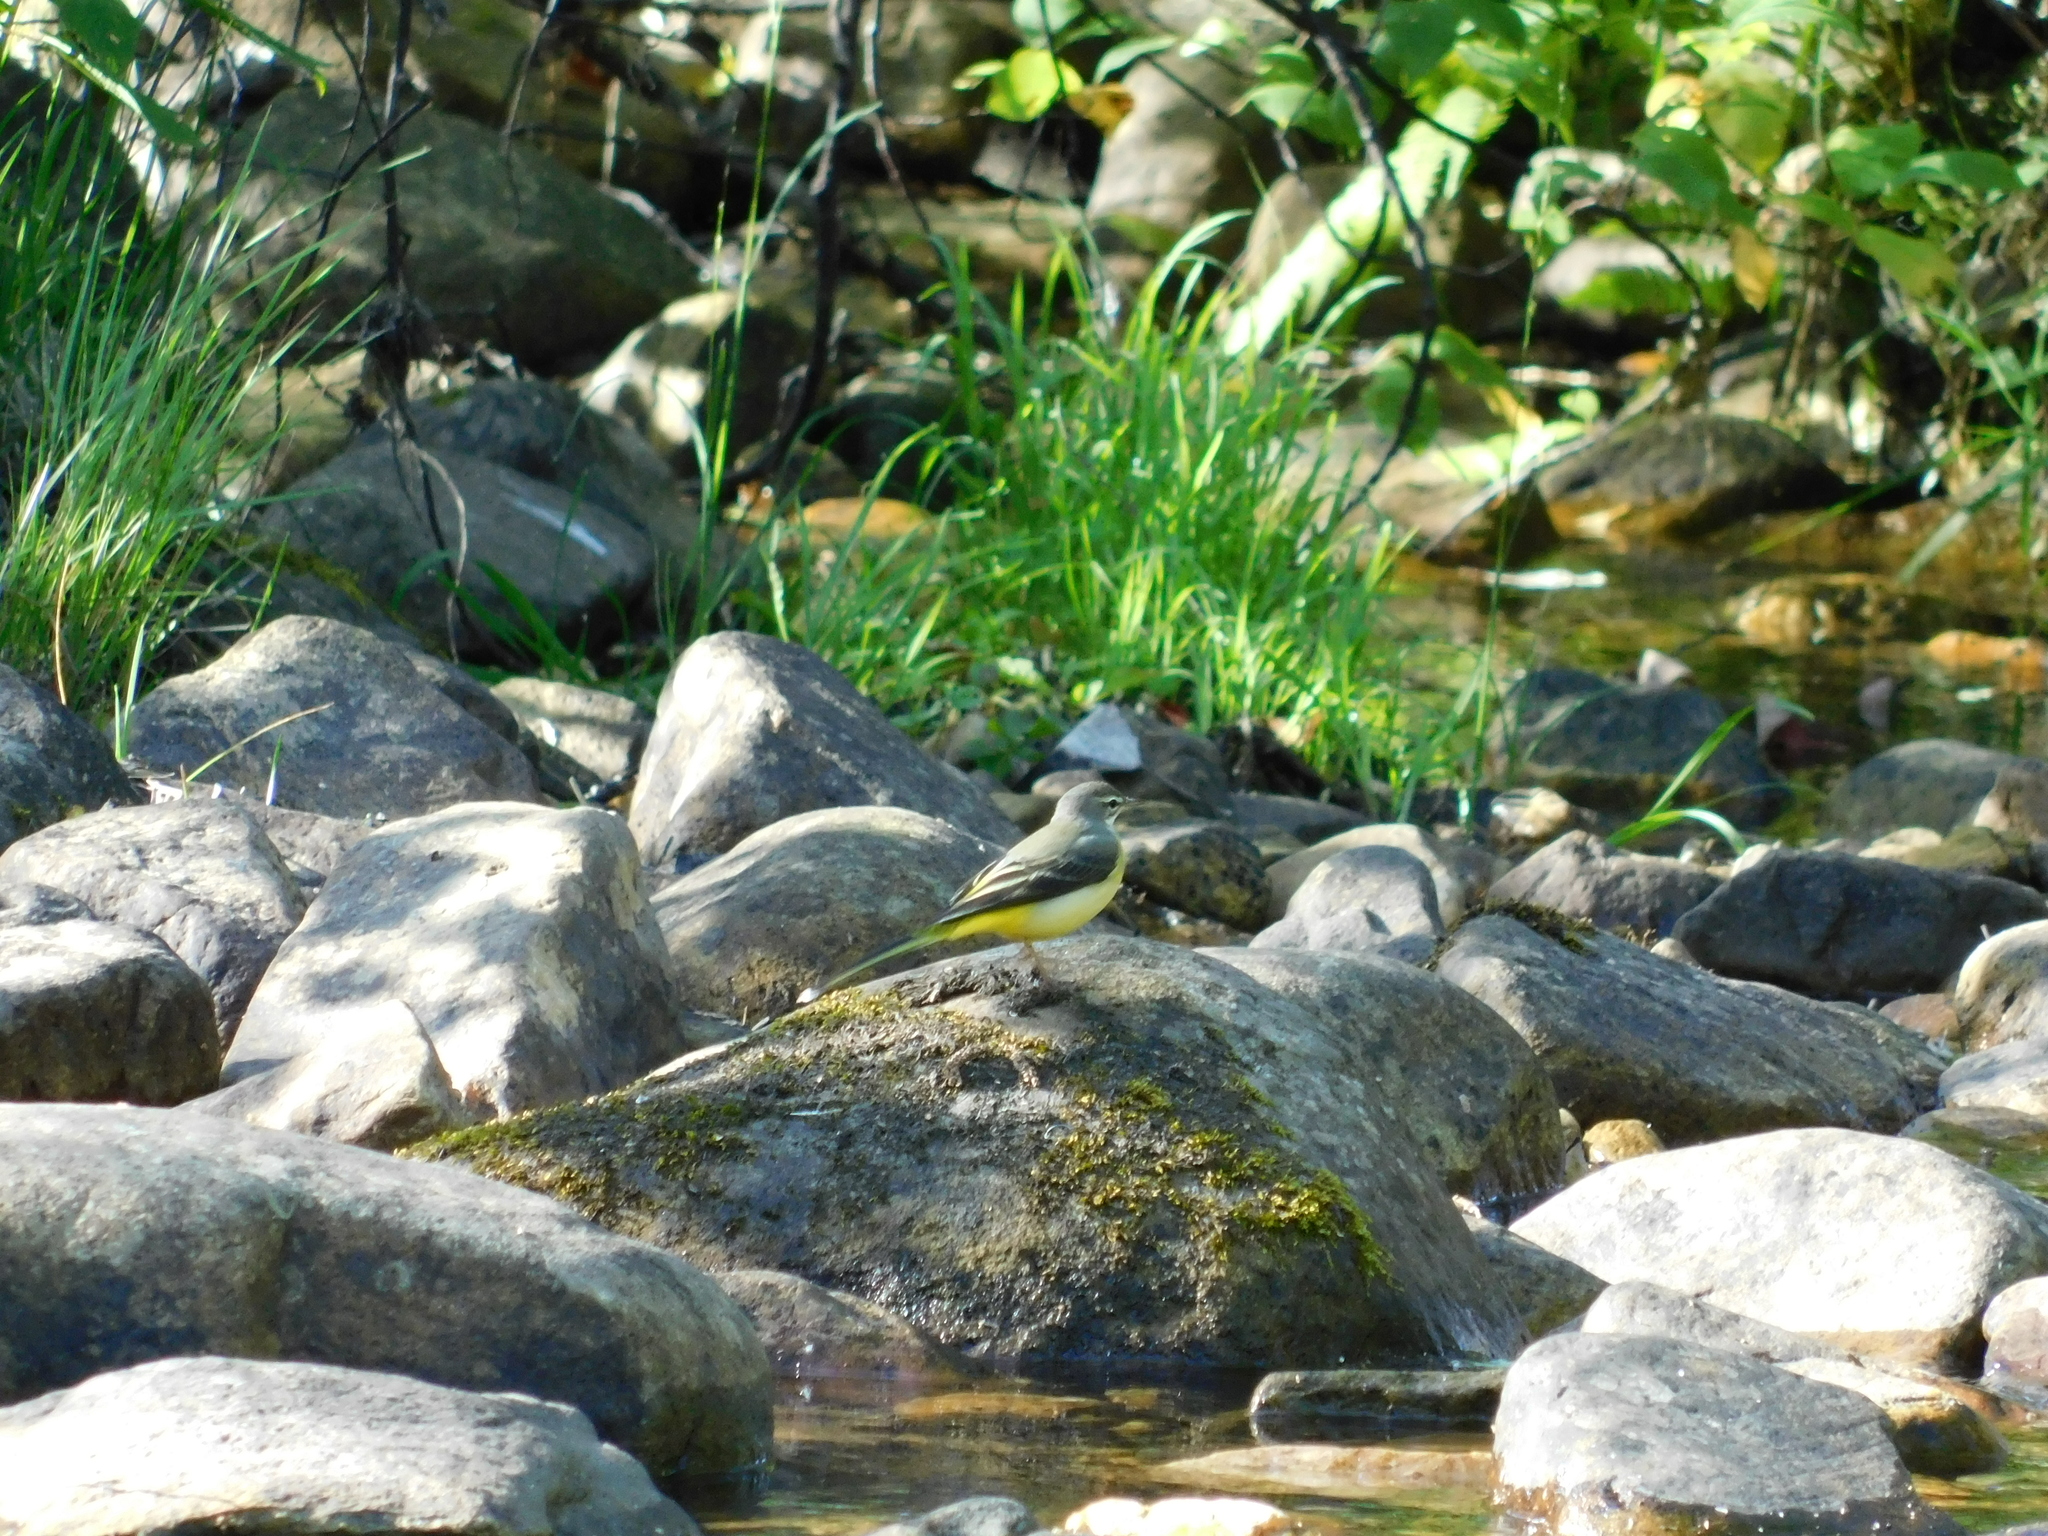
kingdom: Animalia
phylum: Chordata
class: Aves
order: Passeriformes
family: Motacillidae
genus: Motacilla
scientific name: Motacilla cinerea
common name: Grey wagtail
